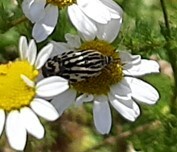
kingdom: Animalia
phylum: Arthropoda
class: Insecta
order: Lepidoptera
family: Noctuidae
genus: Acontia
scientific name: Acontia trabealis
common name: Spotted sulphur
